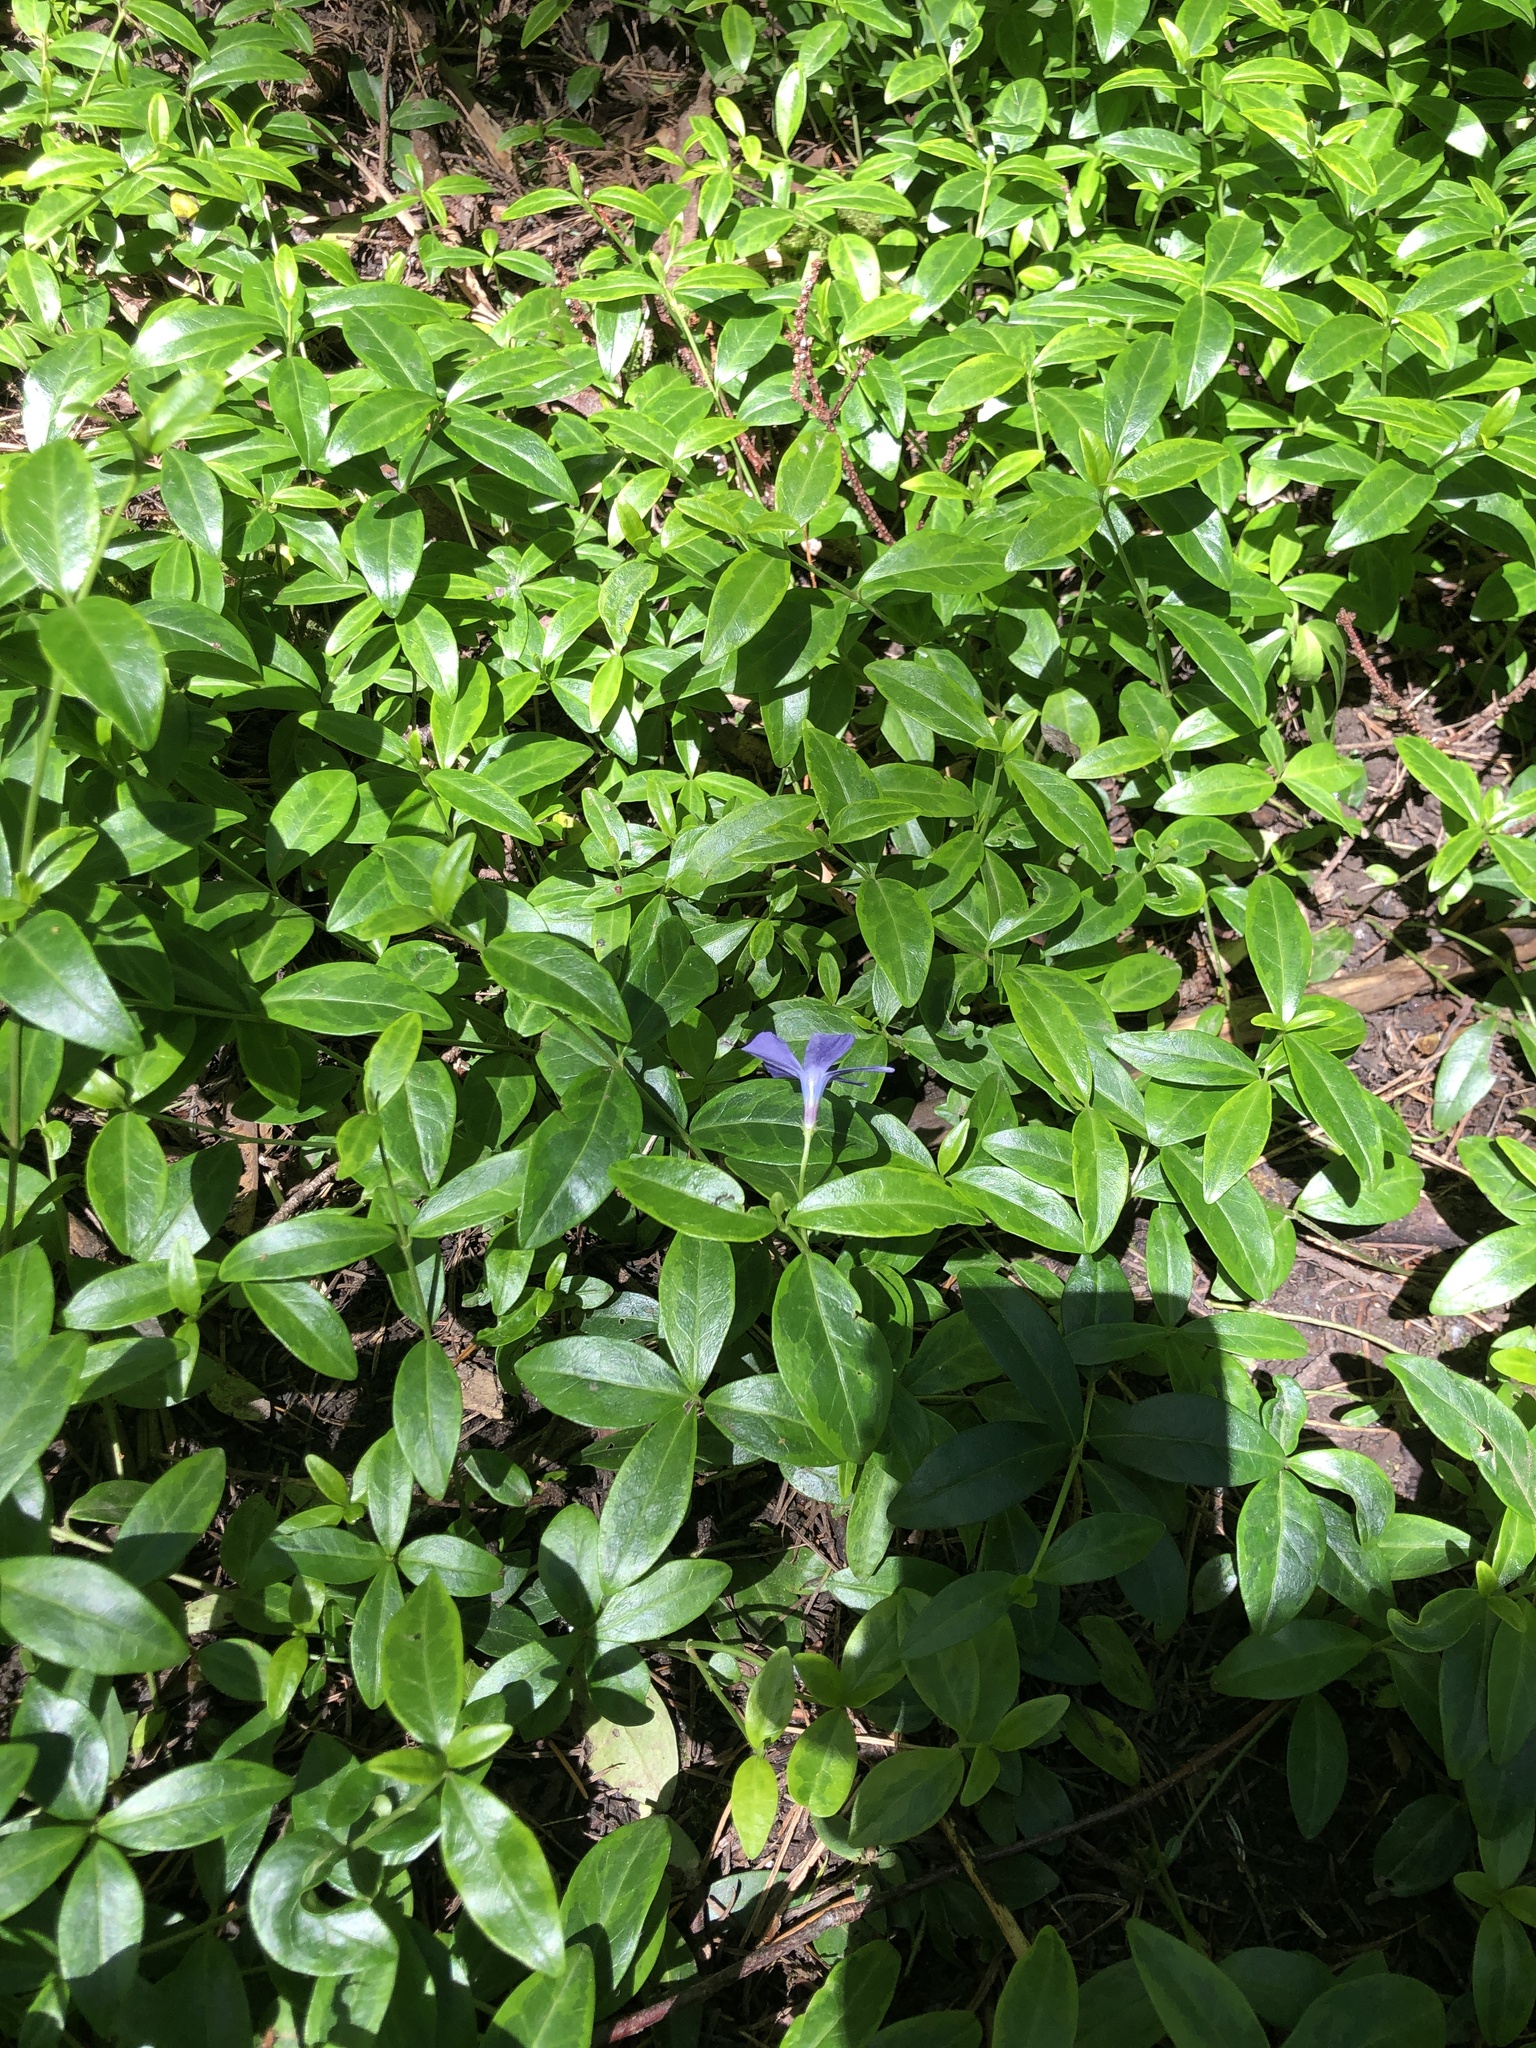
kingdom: Plantae
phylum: Tracheophyta
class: Magnoliopsida
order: Gentianales
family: Apocynaceae
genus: Vinca
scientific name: Vinca minor
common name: Lesser periwinkle
